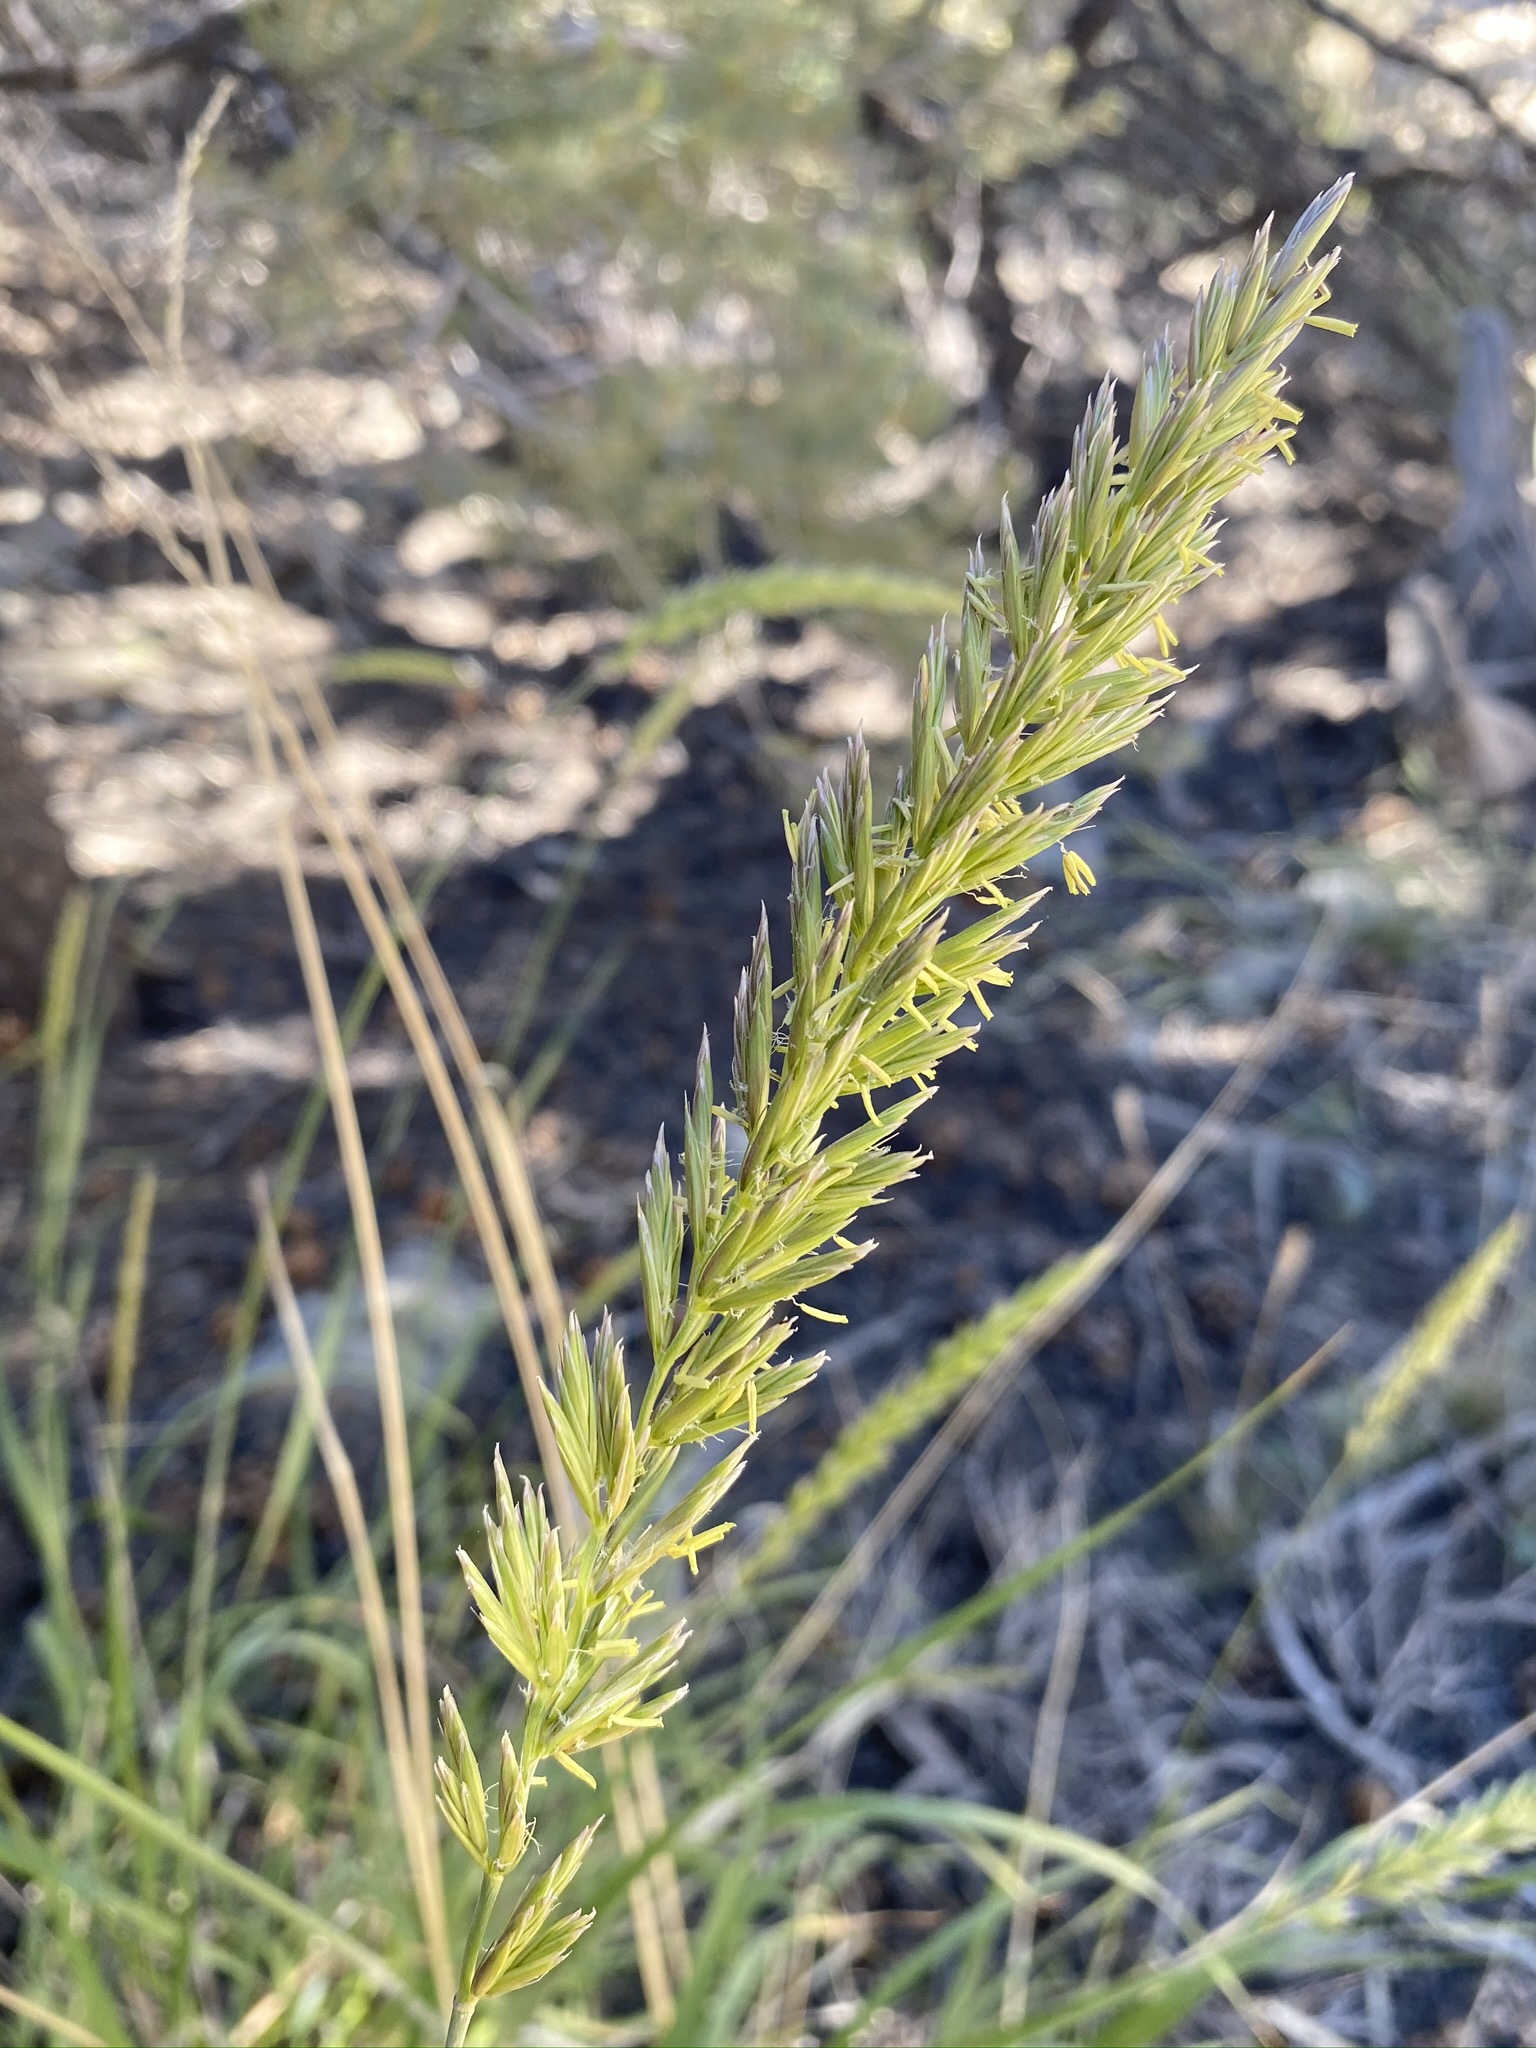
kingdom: Plantae
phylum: Tracheophyta
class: Liliopsida
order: Poales
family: Poaceae
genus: Leymus
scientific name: Leymus cinereus
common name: Basin wild rye
